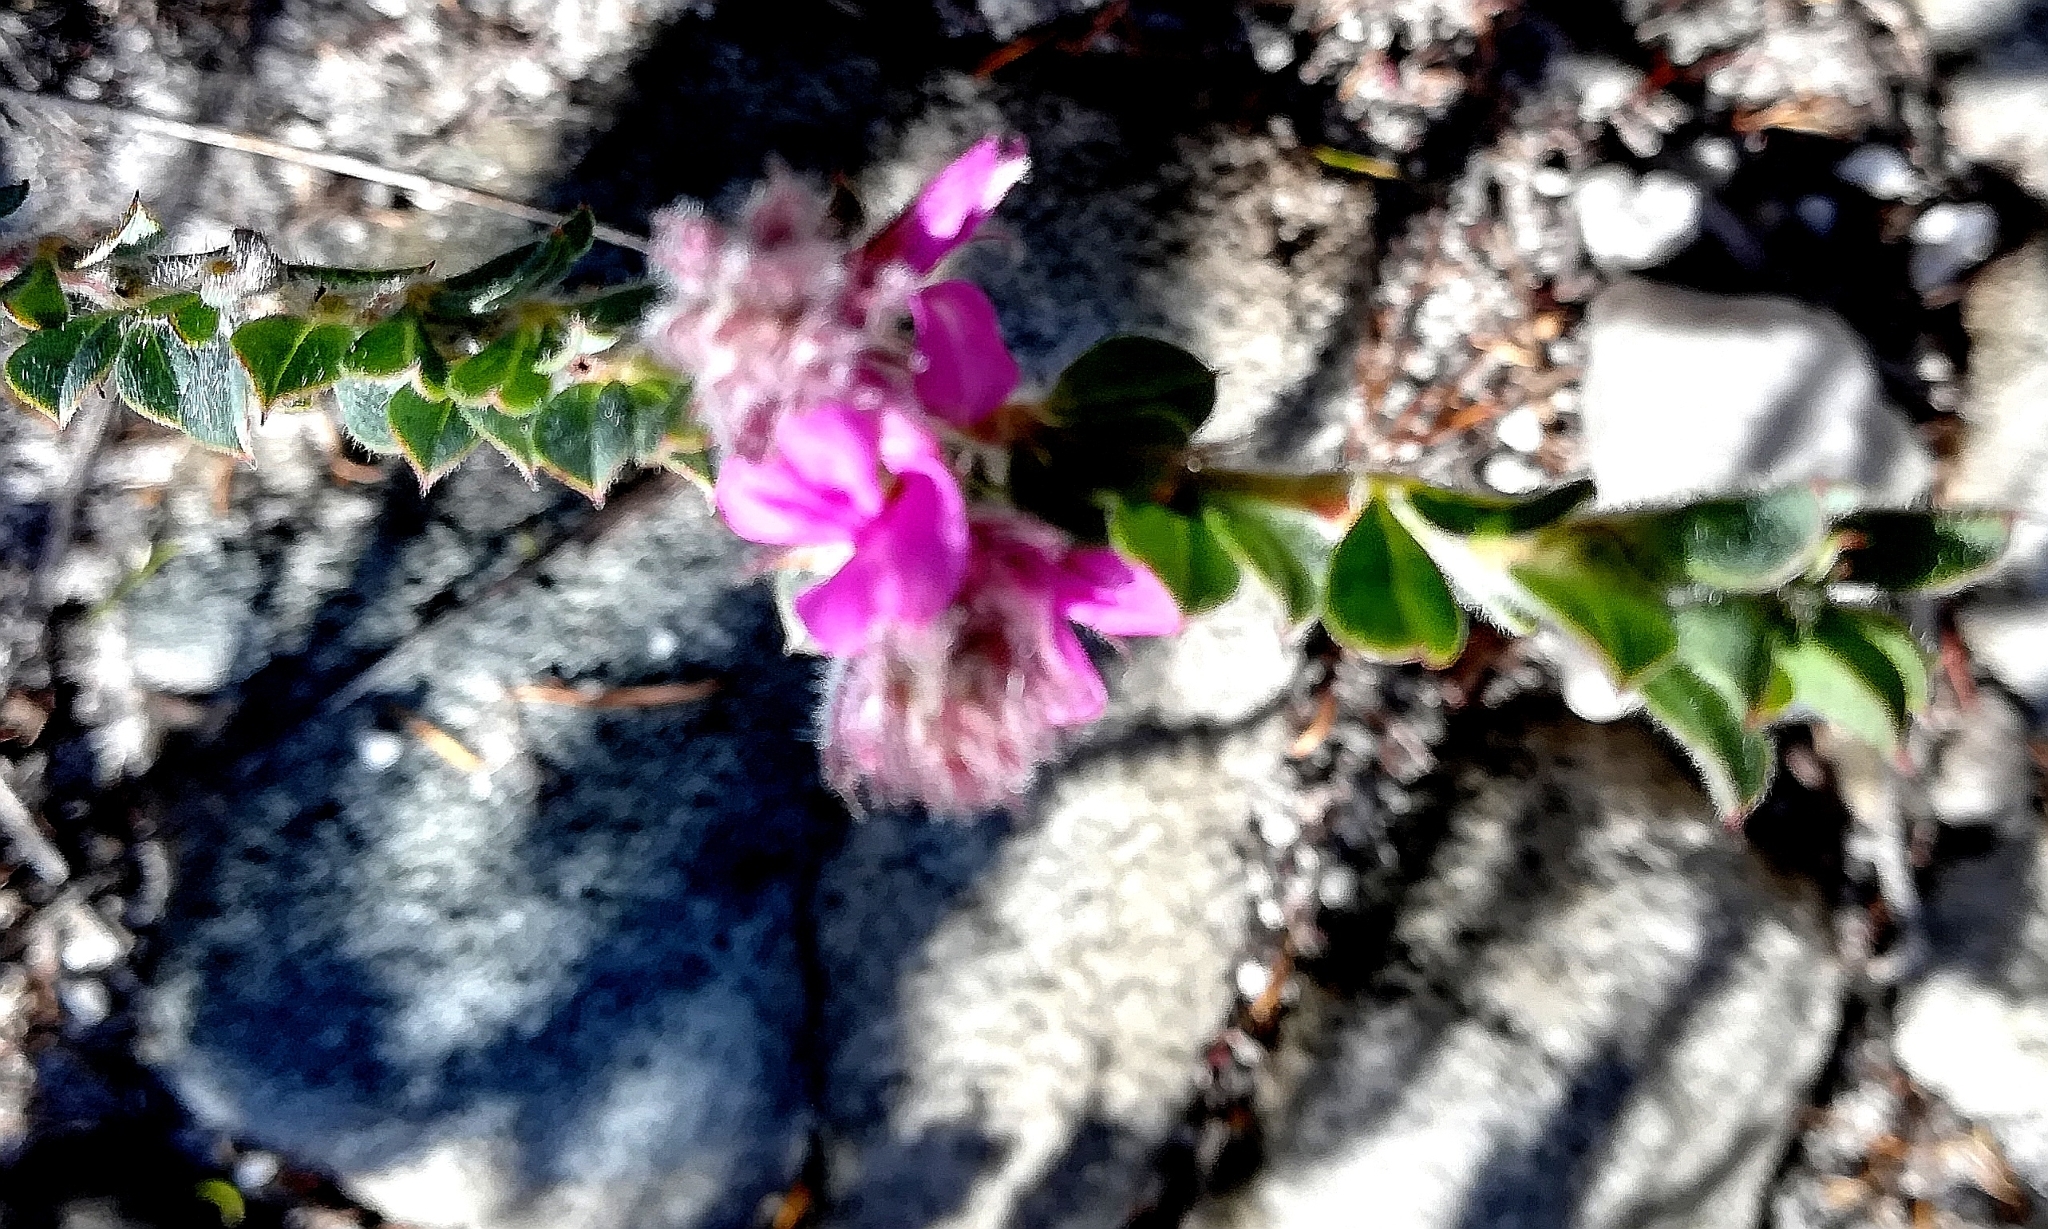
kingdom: Plantae
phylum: Tracheophyta
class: Magnoliopsida
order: Fabales
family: Fabaceae
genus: Indigofera
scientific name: Indigofera glomerata
